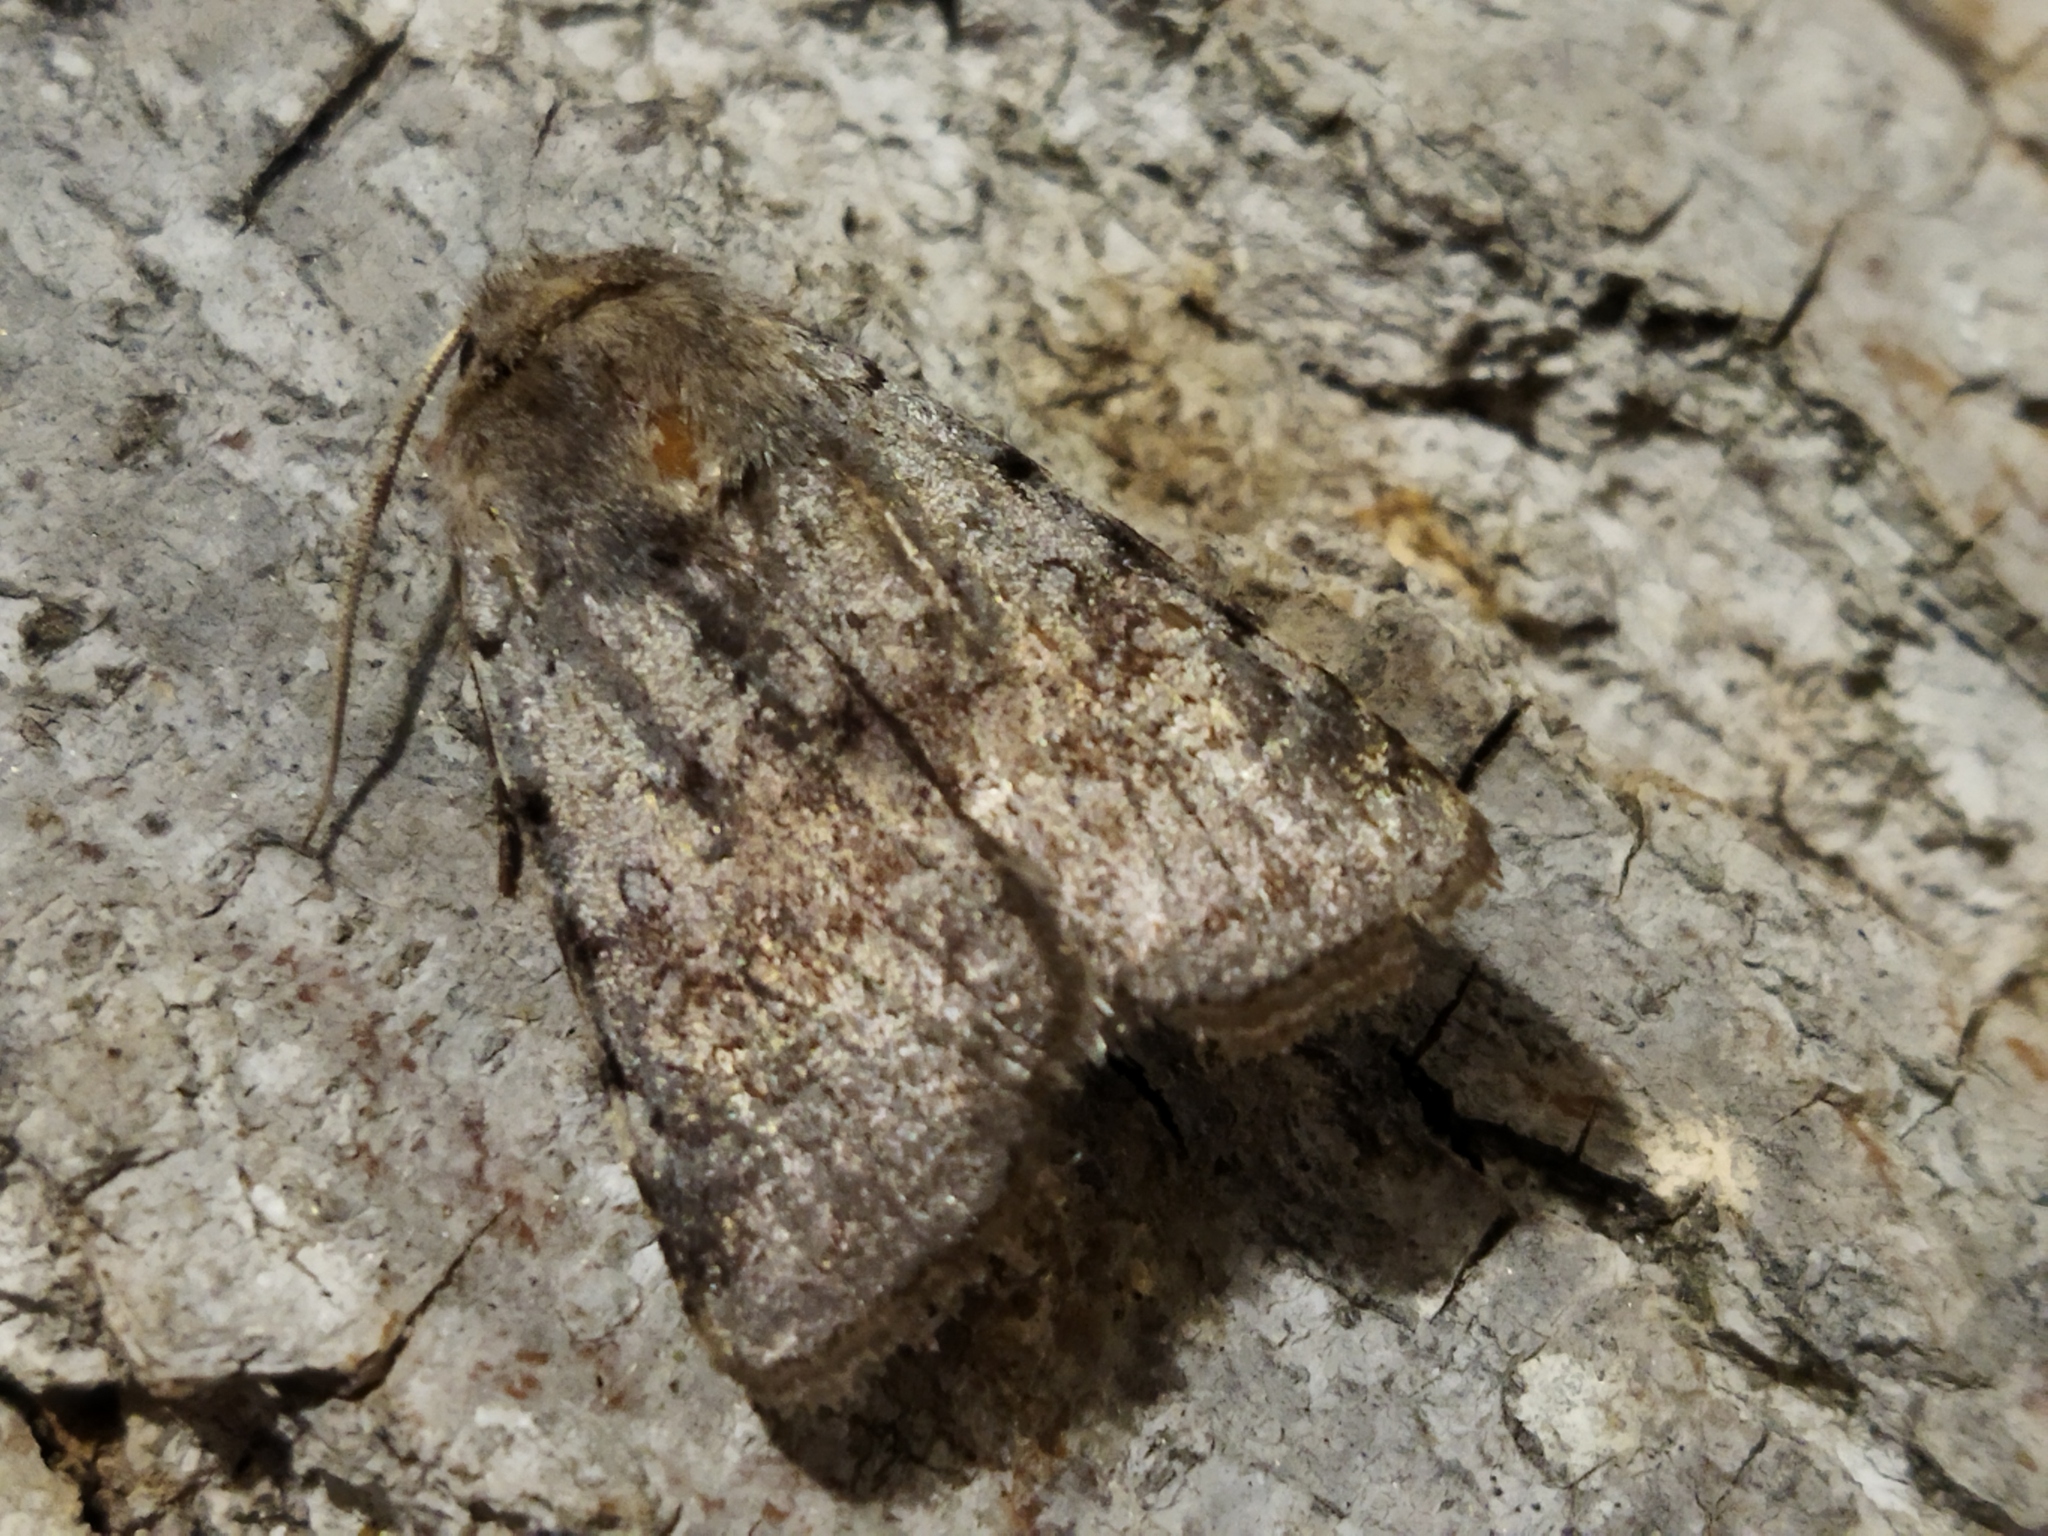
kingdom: Animalia
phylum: Arthropoda
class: Insecta
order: Lepidoptera
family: Noctuidae
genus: Cerastis
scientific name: Cerastis rubricosa
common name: Red chestnut
